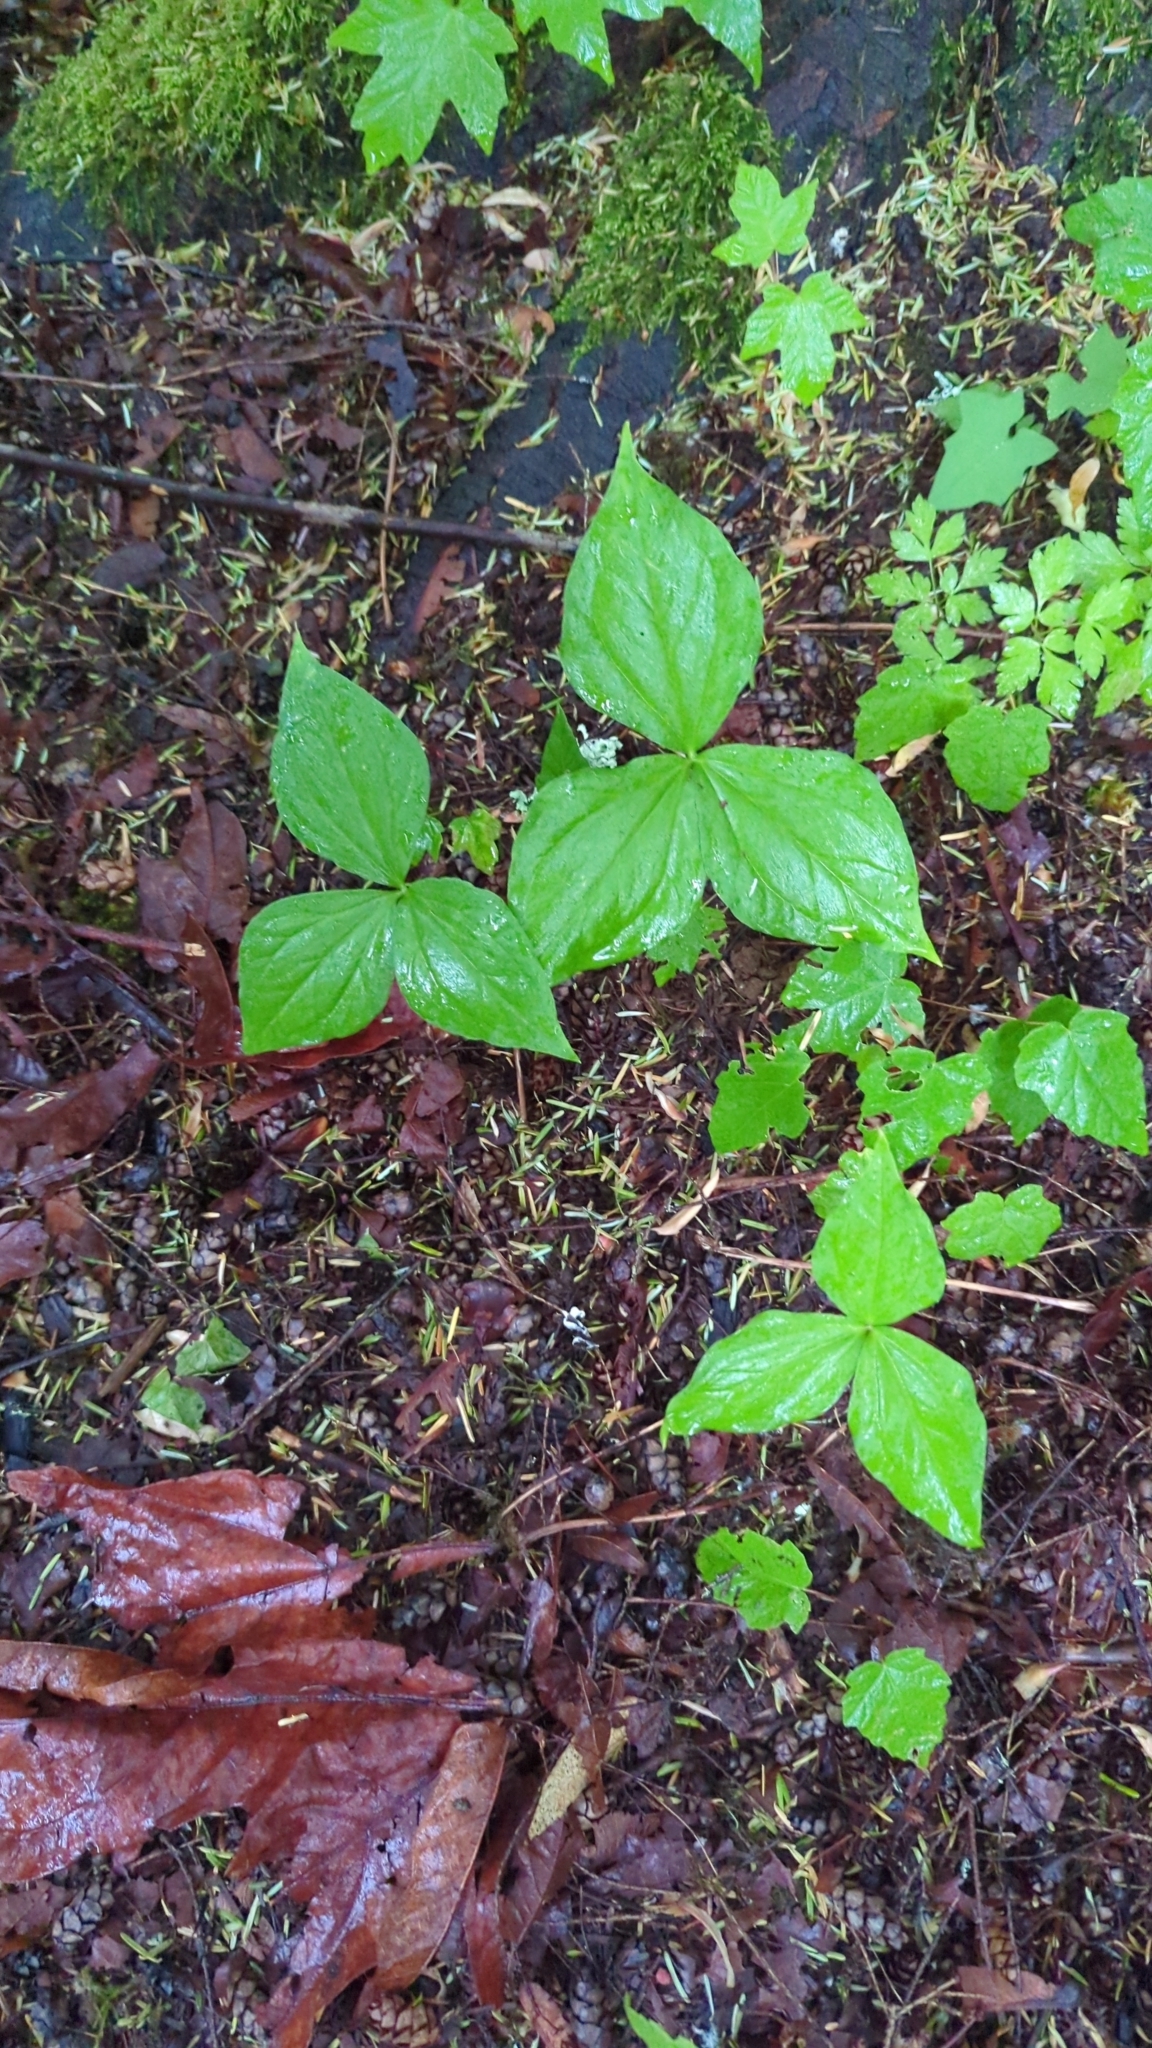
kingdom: Plantae
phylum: Tracheophyta
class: Liliopsida
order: Liliales
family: Melanthiaceae
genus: Trillium
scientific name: Trillium ovatum
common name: Pacific trillium
